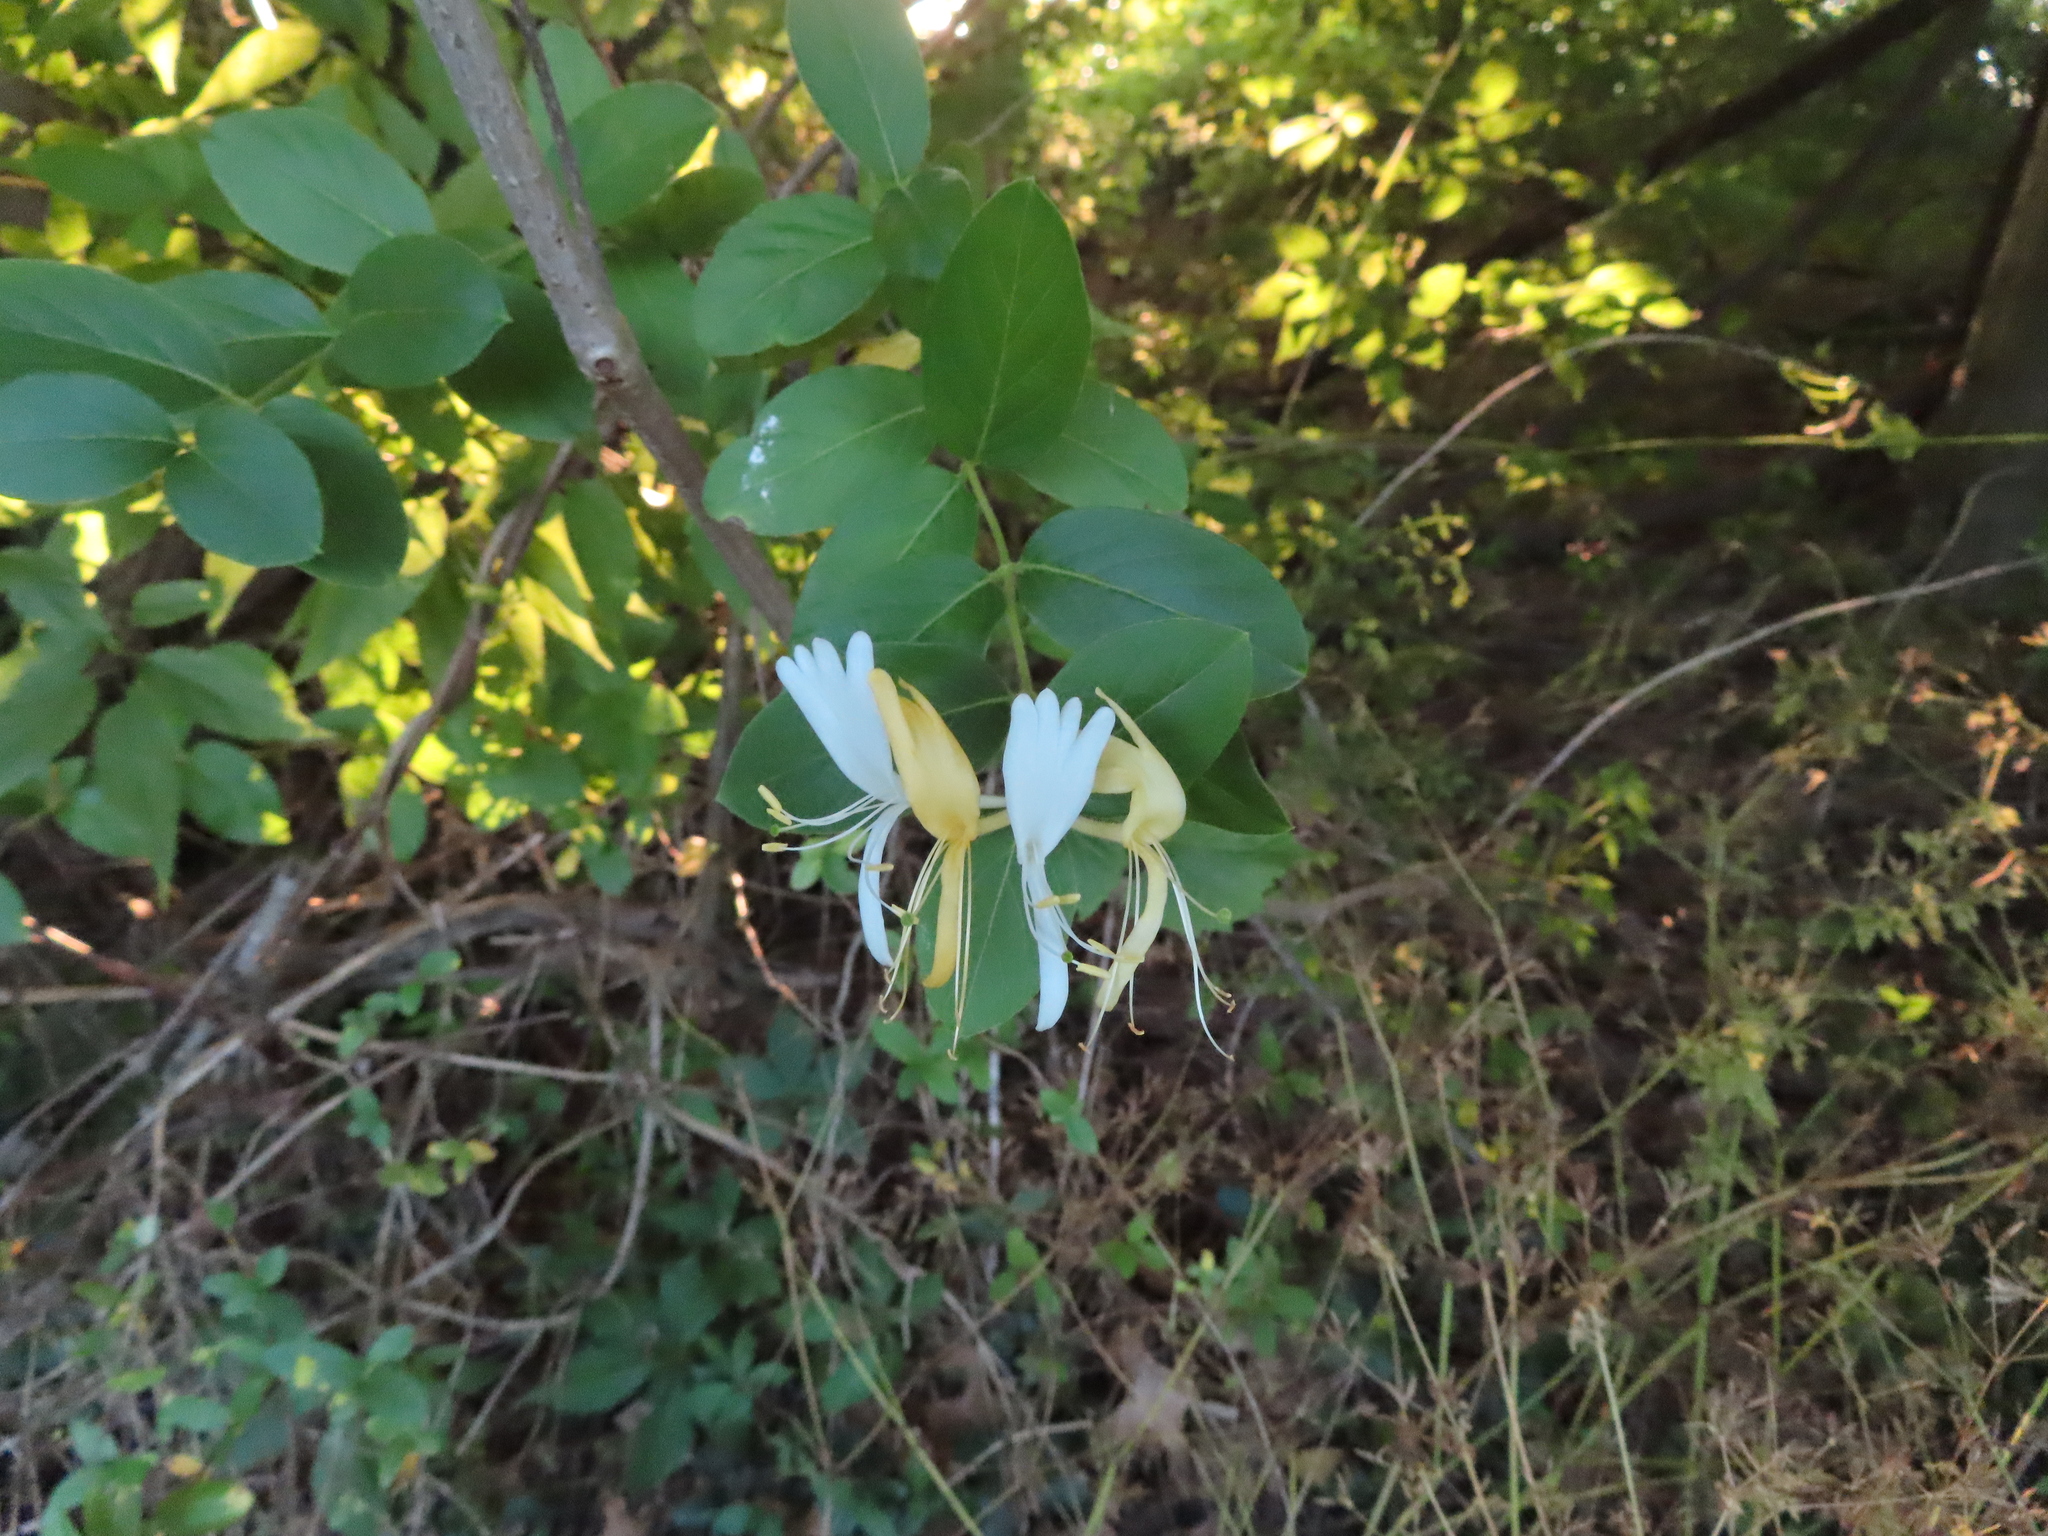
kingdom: Plantae
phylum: Tracheophyta
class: Magnoliopsida
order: Dipsacales
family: Caprifoliaceae
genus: Lonicera
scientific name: Lonicera japonica
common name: Japanese honeysuckle
